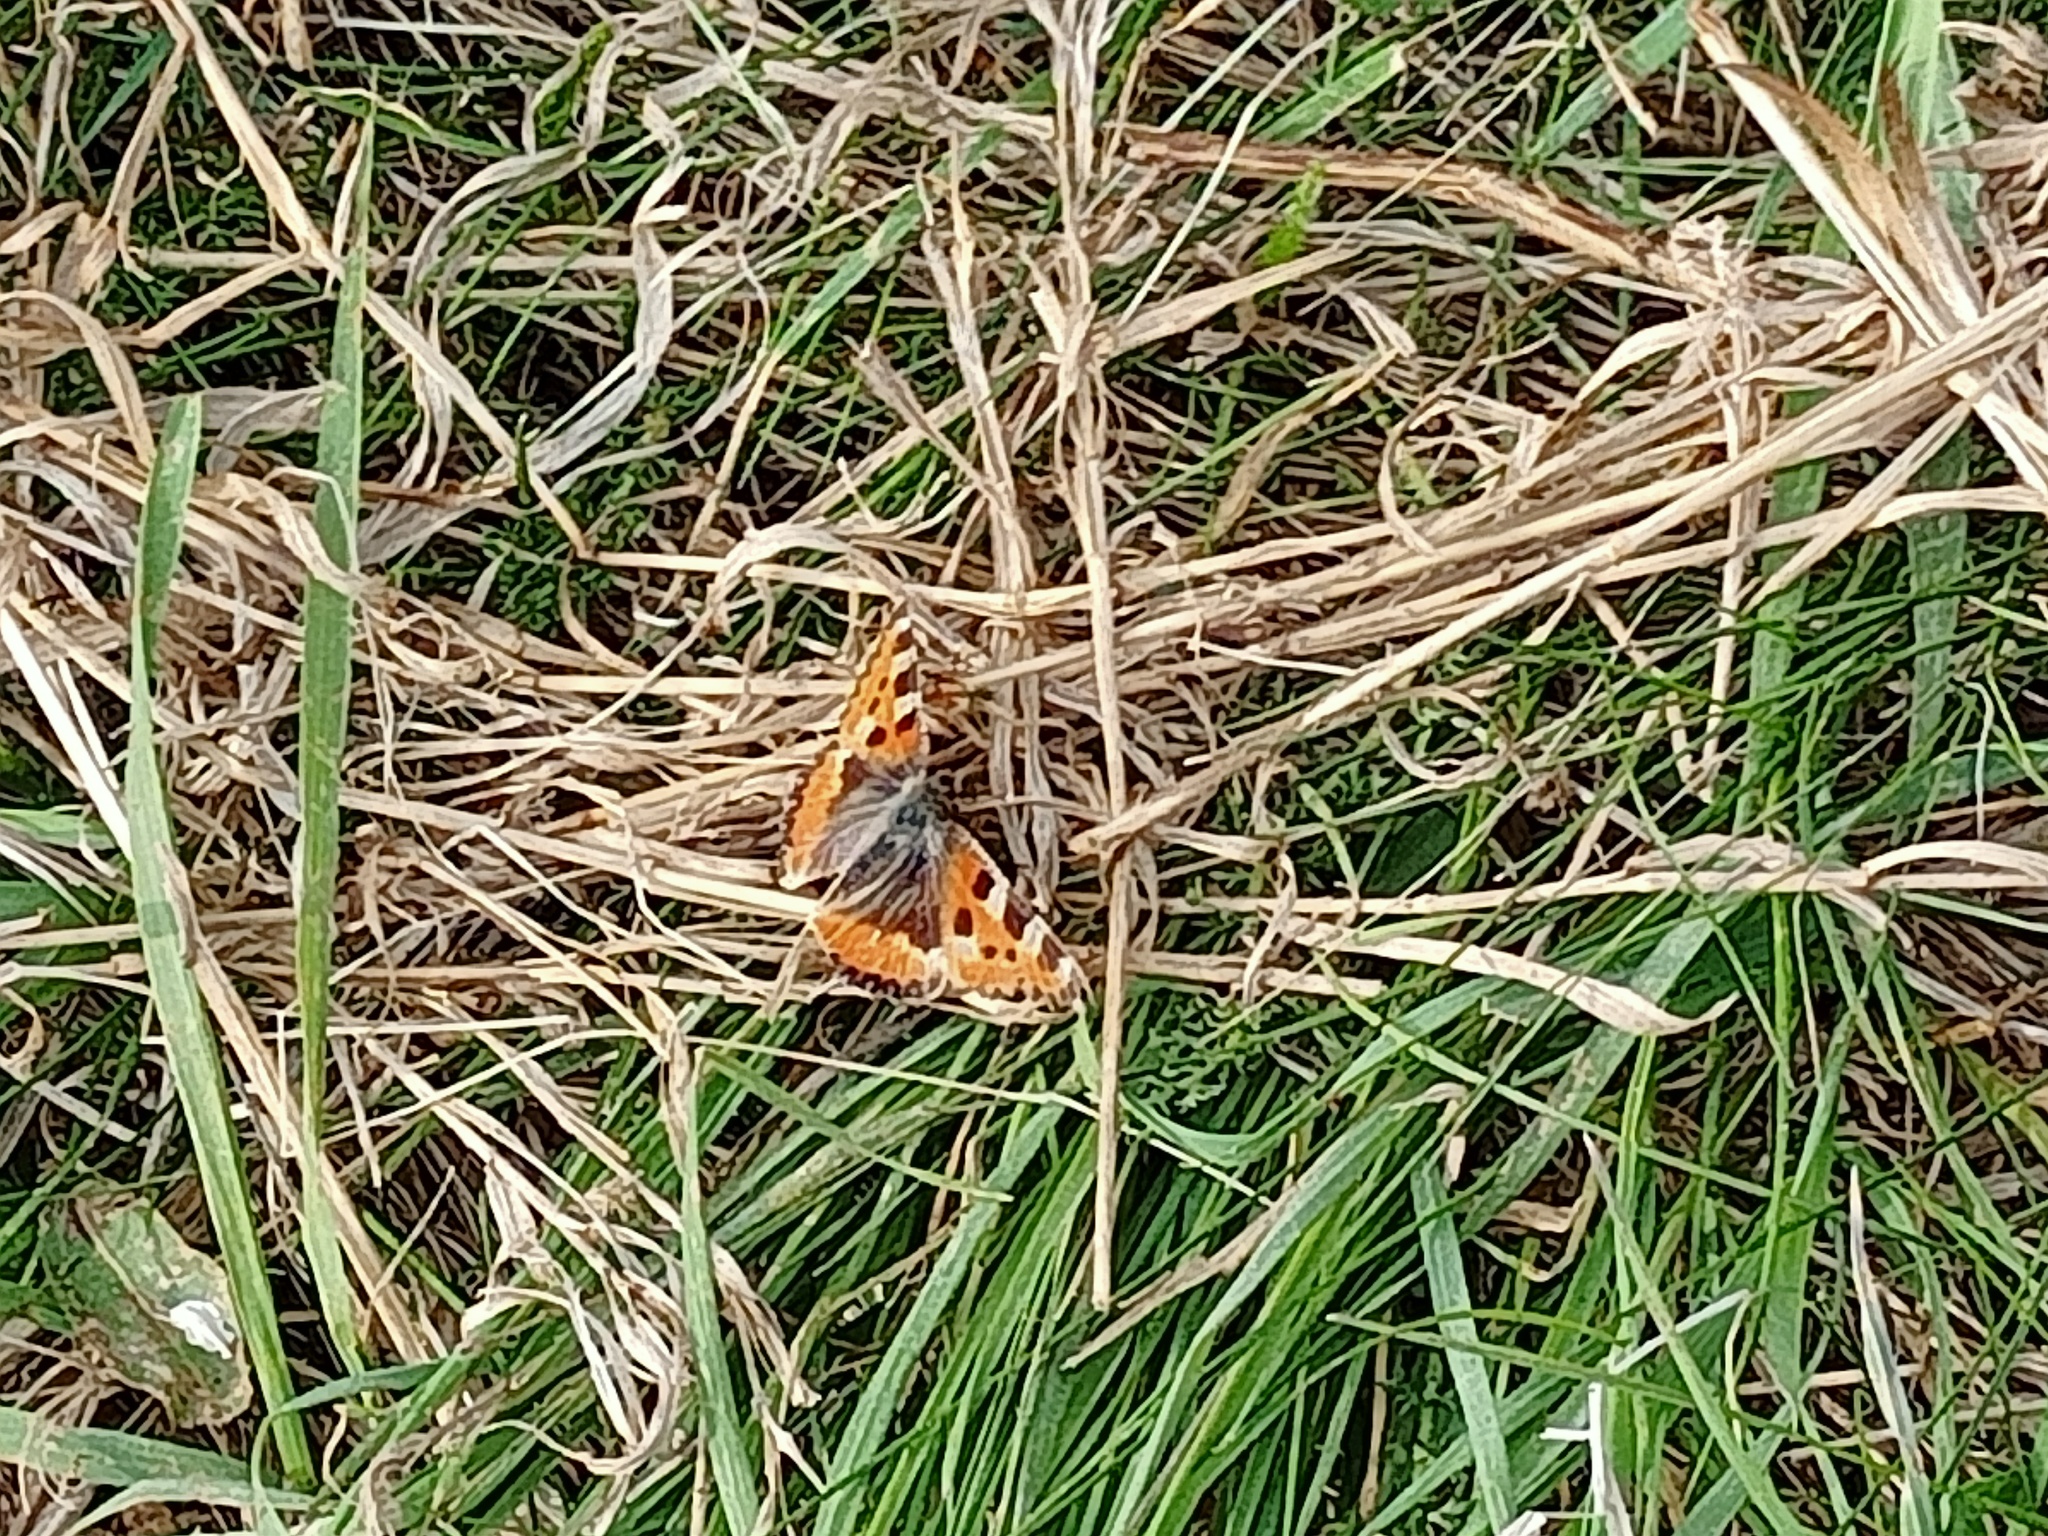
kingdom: Animalia
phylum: Arthropoda
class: Insecta
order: Lepidoptera
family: Nymphalidae
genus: Aglais
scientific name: Aglais urticae
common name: Small tortoiseshell
